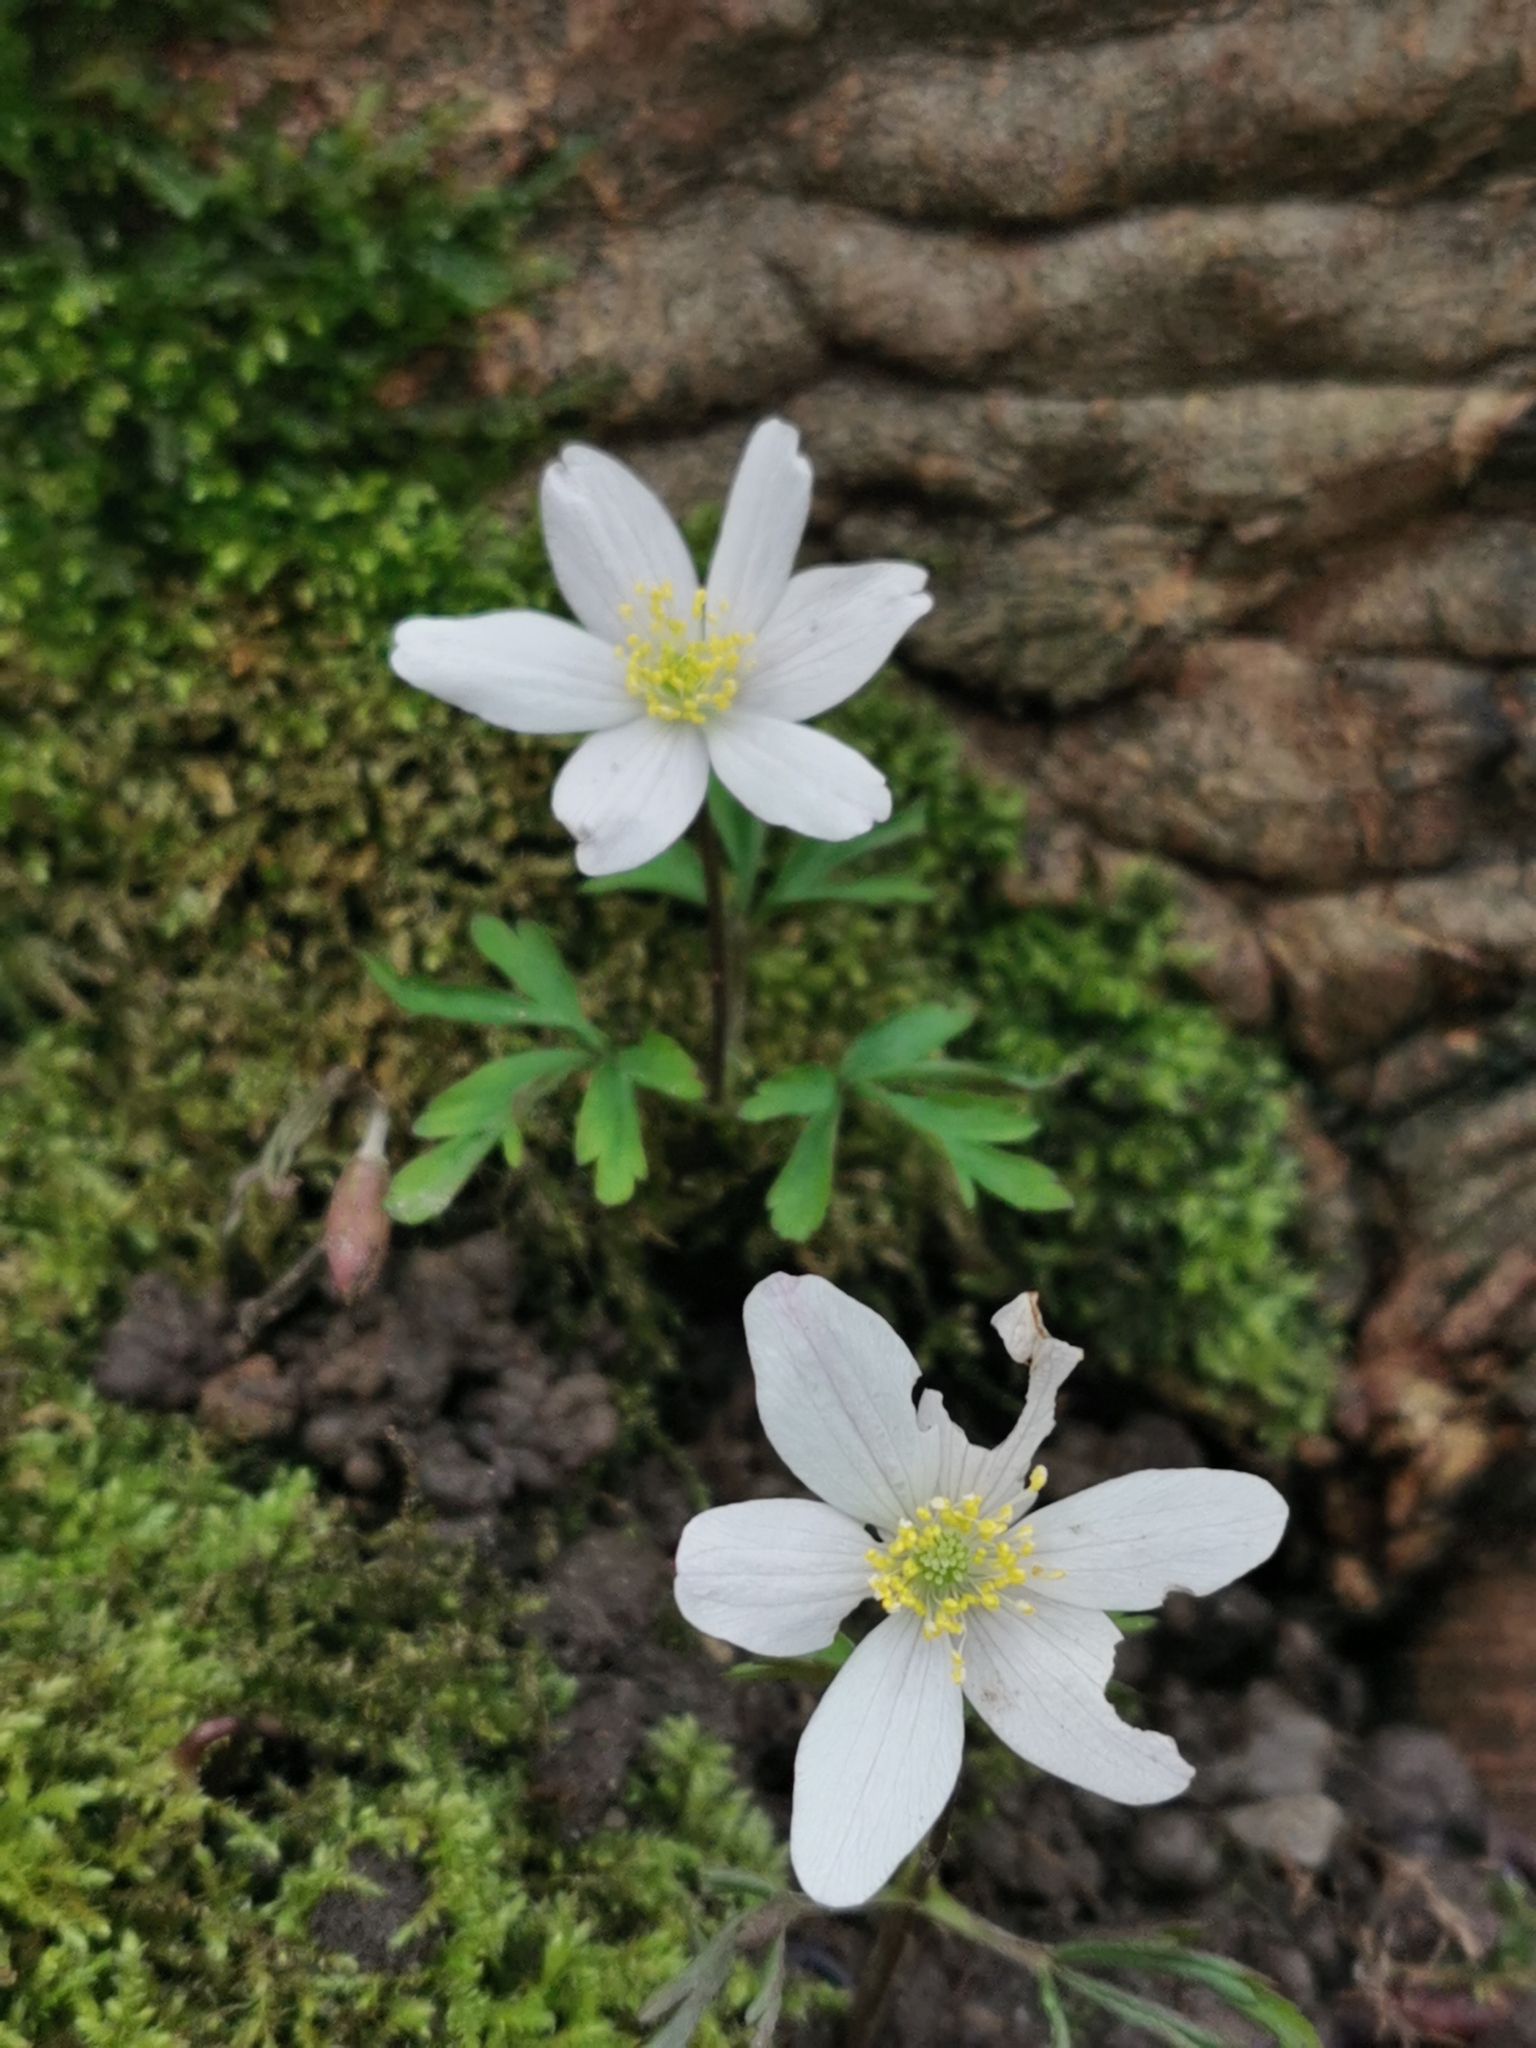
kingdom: Plantae
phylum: Tracheophyta
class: Magnoliopsida
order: Ranunculales
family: Ranunculaceae
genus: Anemone
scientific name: Anemone nemorosa
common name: Wood anemone
